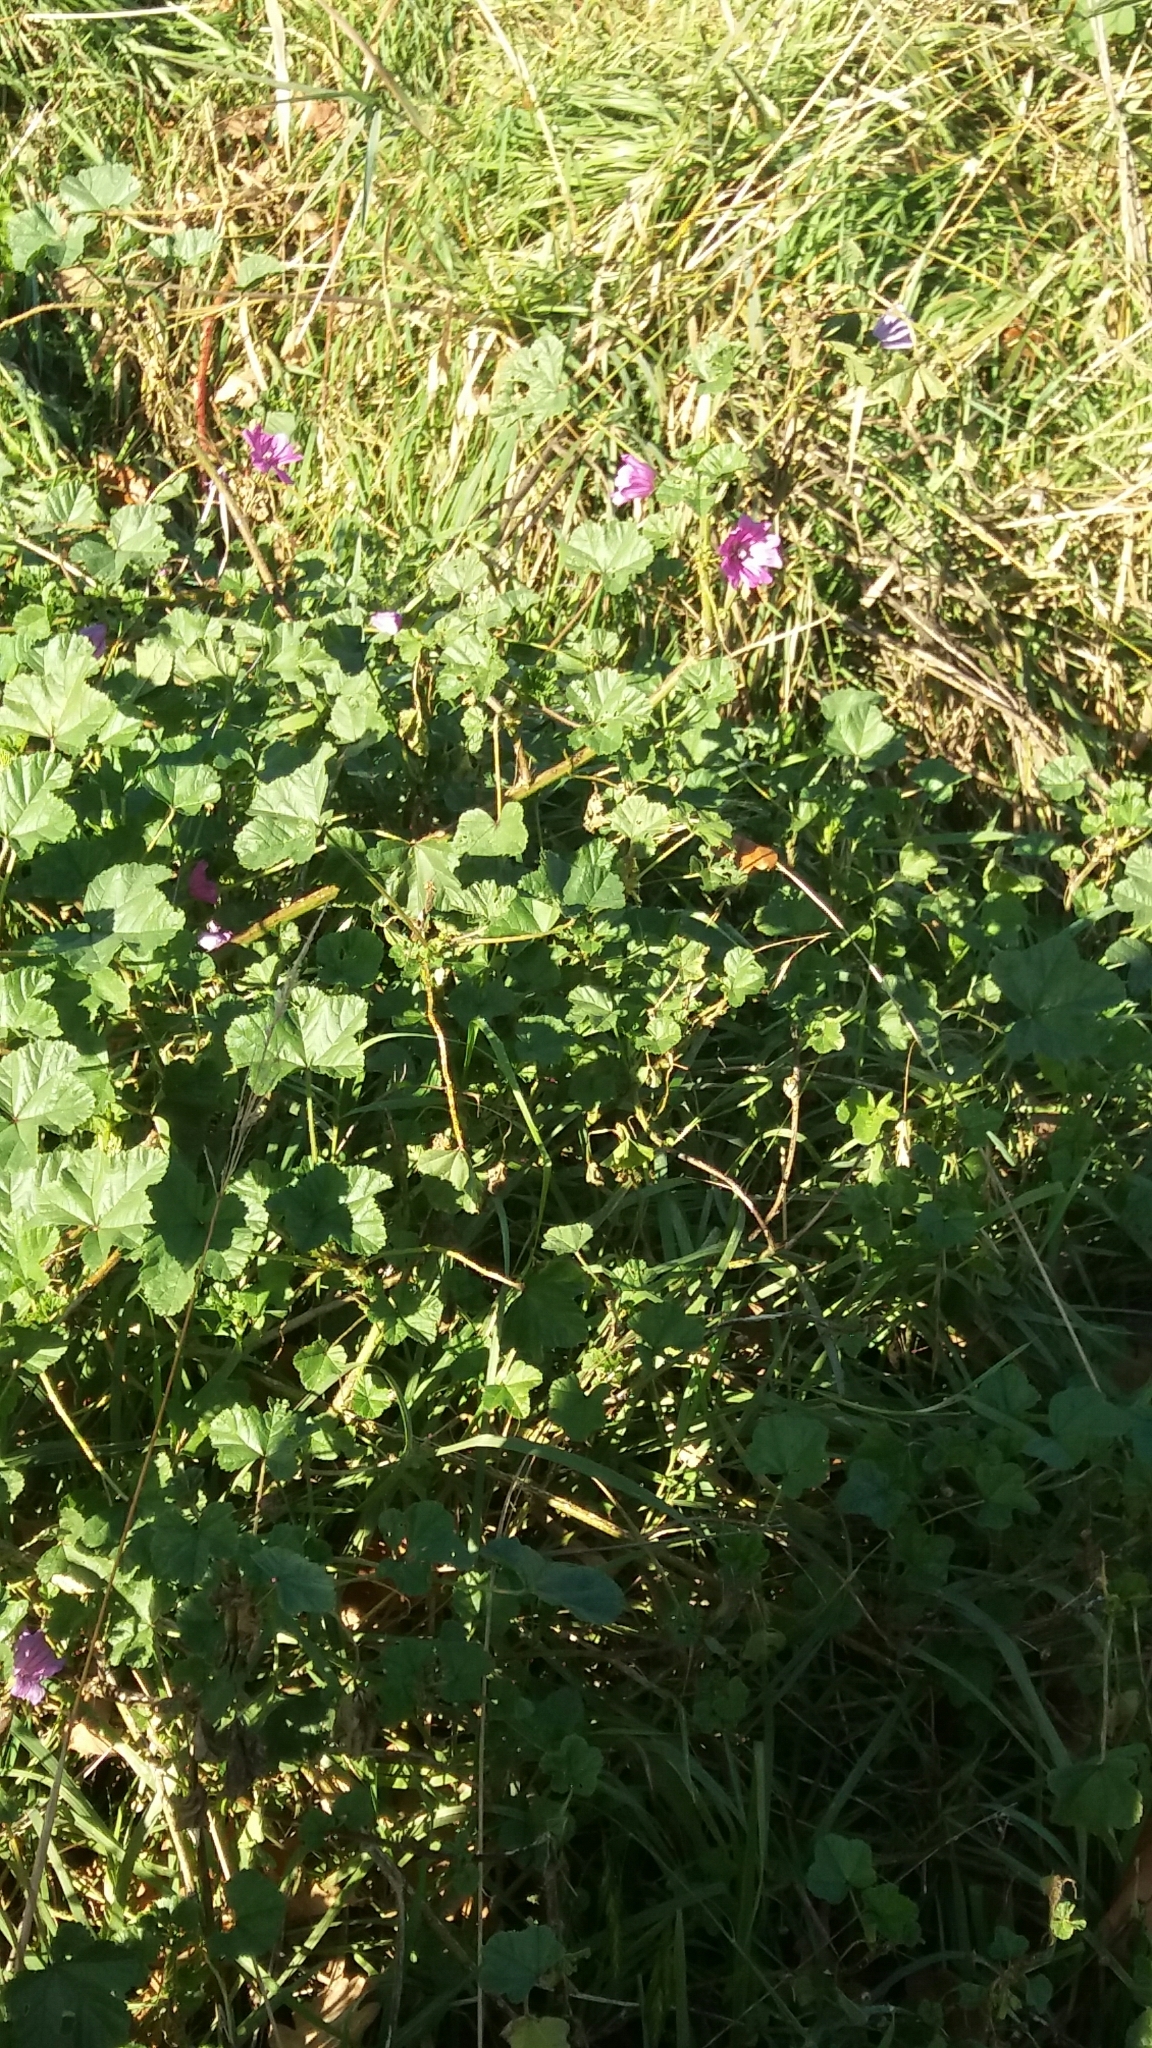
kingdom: Plantae
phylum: Tracheophyta
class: Magnoliopsida
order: Malvales
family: Malvaceae
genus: Malva
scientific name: Malva sylvestris
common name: Common mallow
